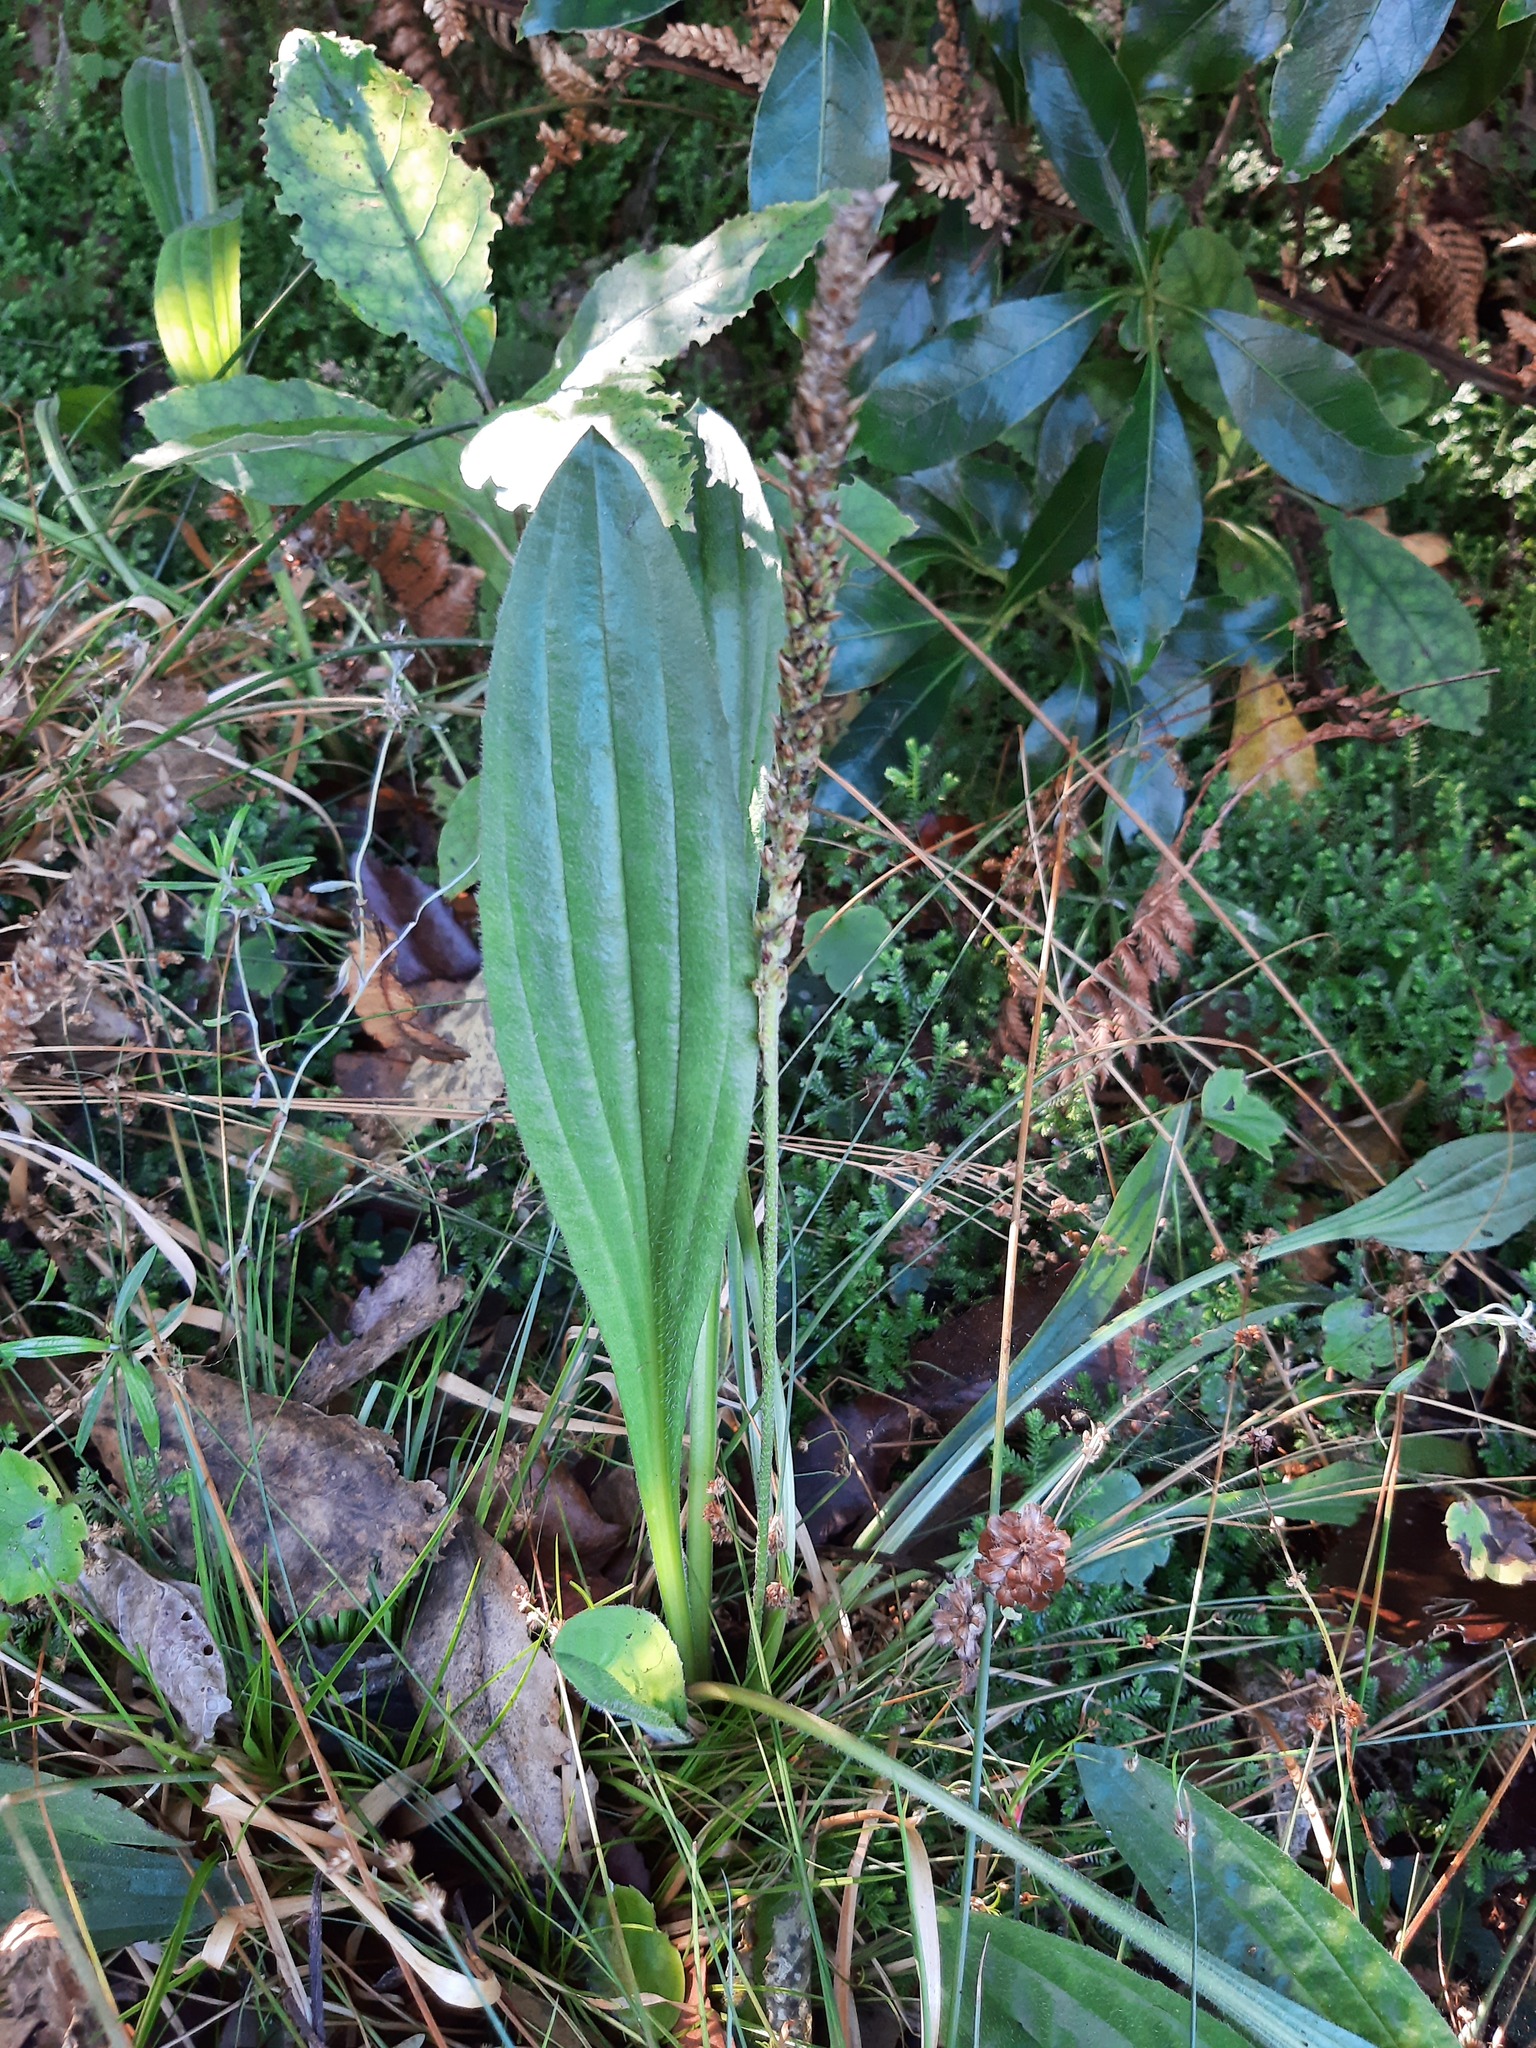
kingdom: Plantae
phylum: Tracheophyta
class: Magnoliopsida
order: Lamiales
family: Plantaginaceae
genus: Plantago
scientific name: Plantago australis
